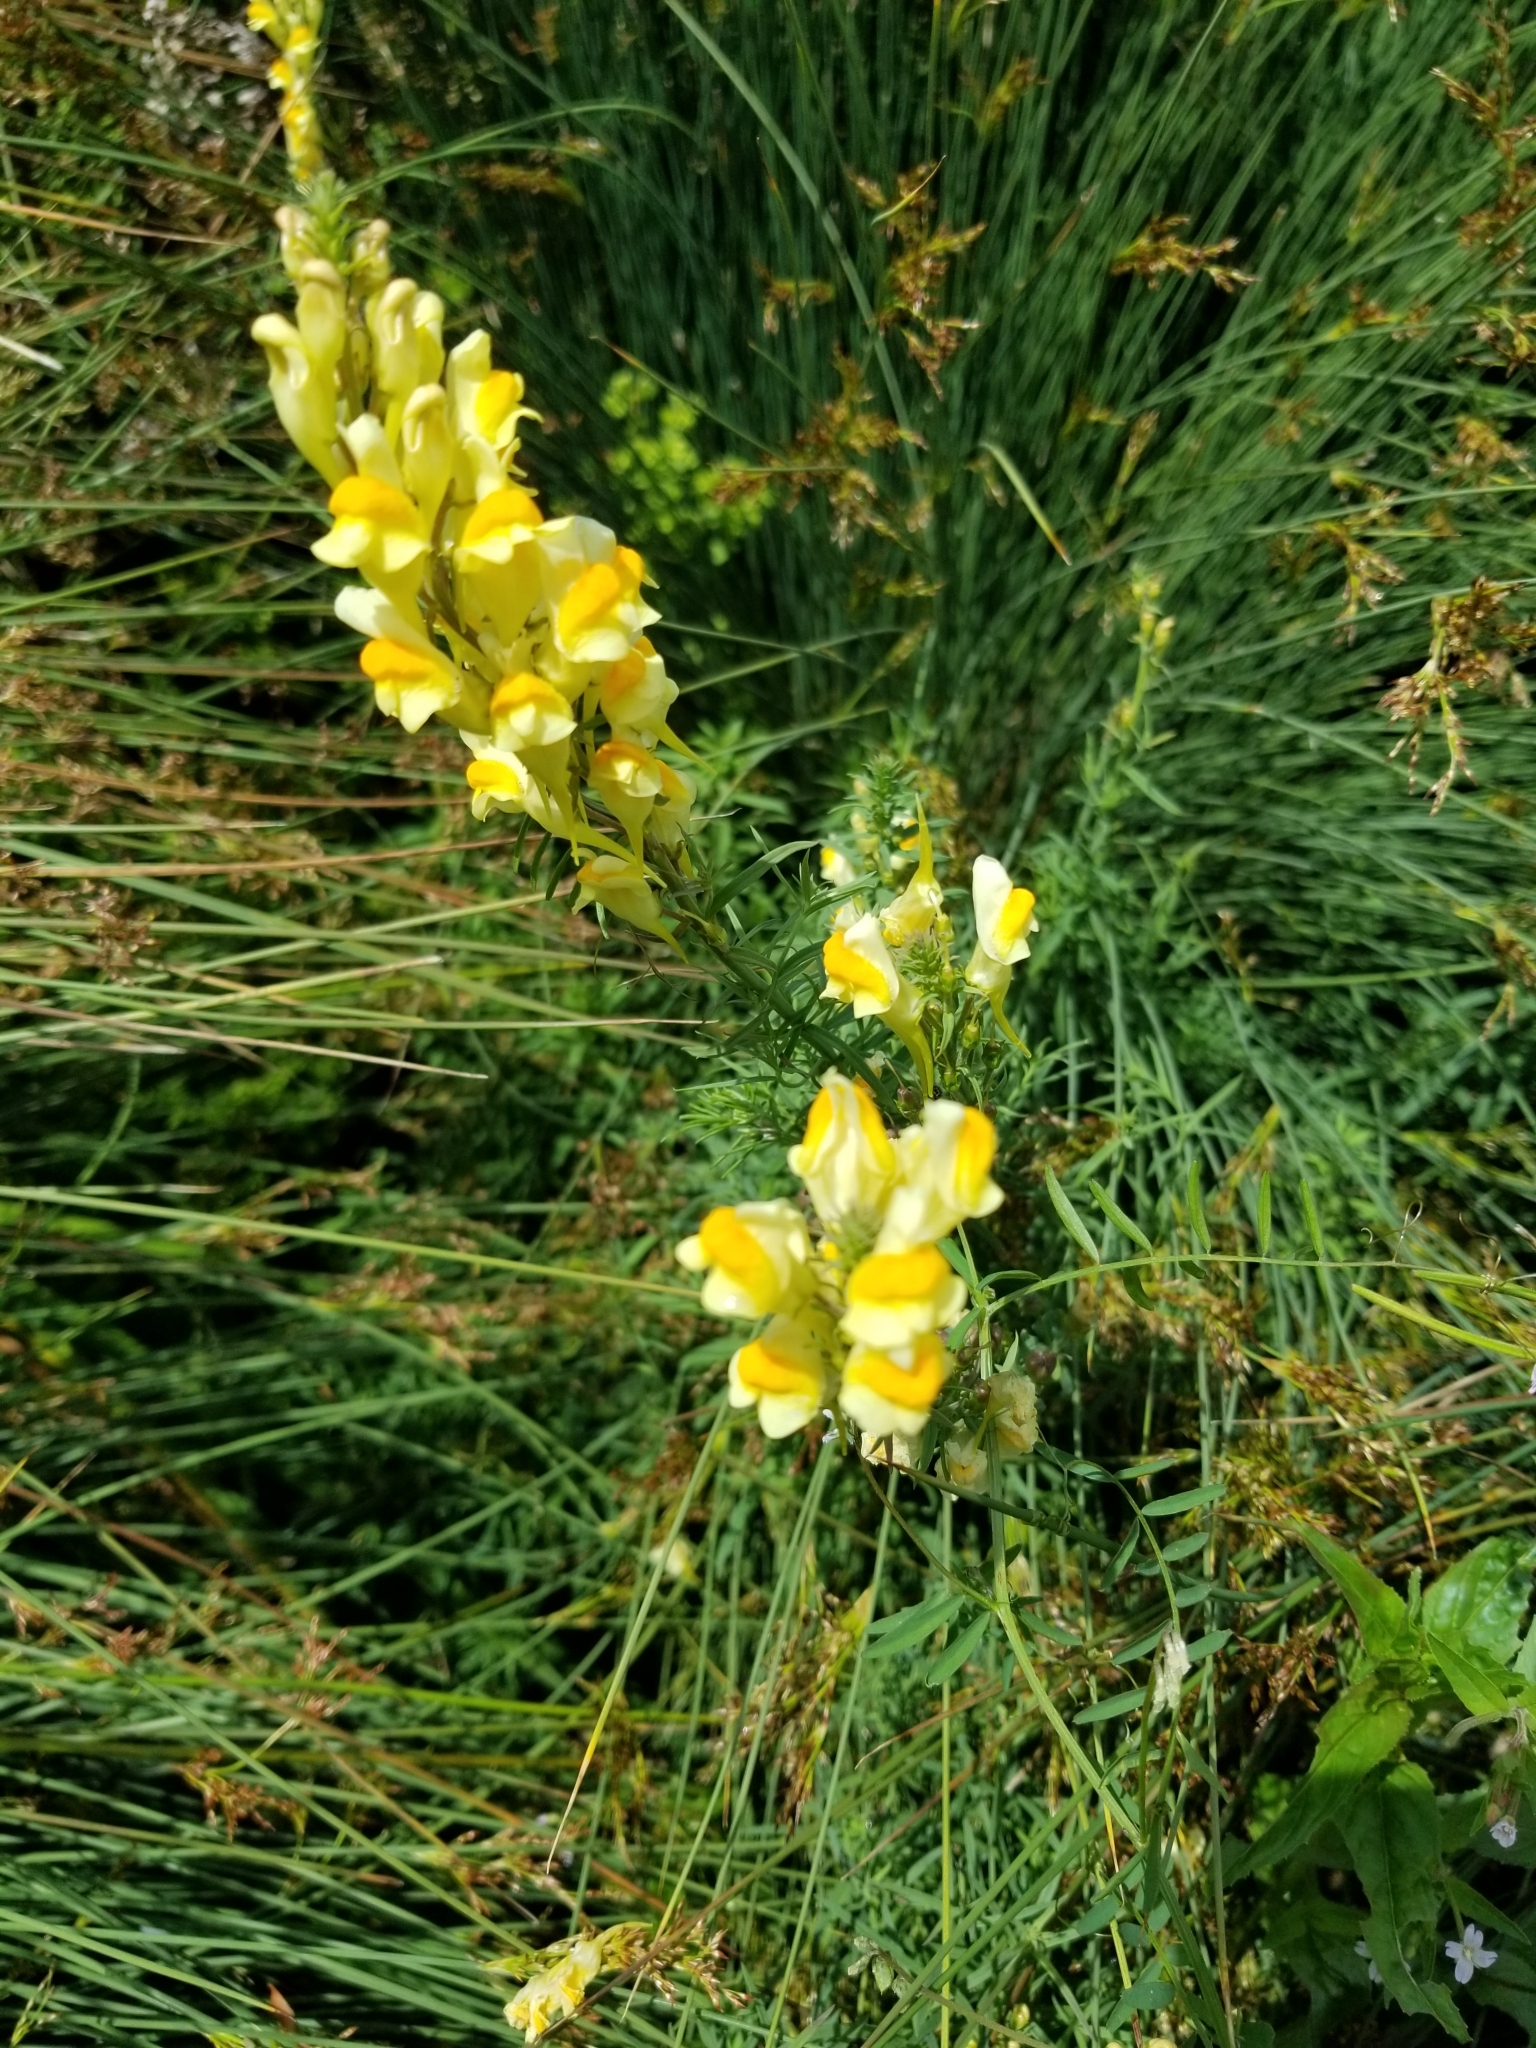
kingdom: Plantae
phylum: Tracheophyta
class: Magnoliopsida
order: Lamiales
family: Plantaginaceae
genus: Linaria
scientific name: Linaria vulgaris
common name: Butter and eggs
